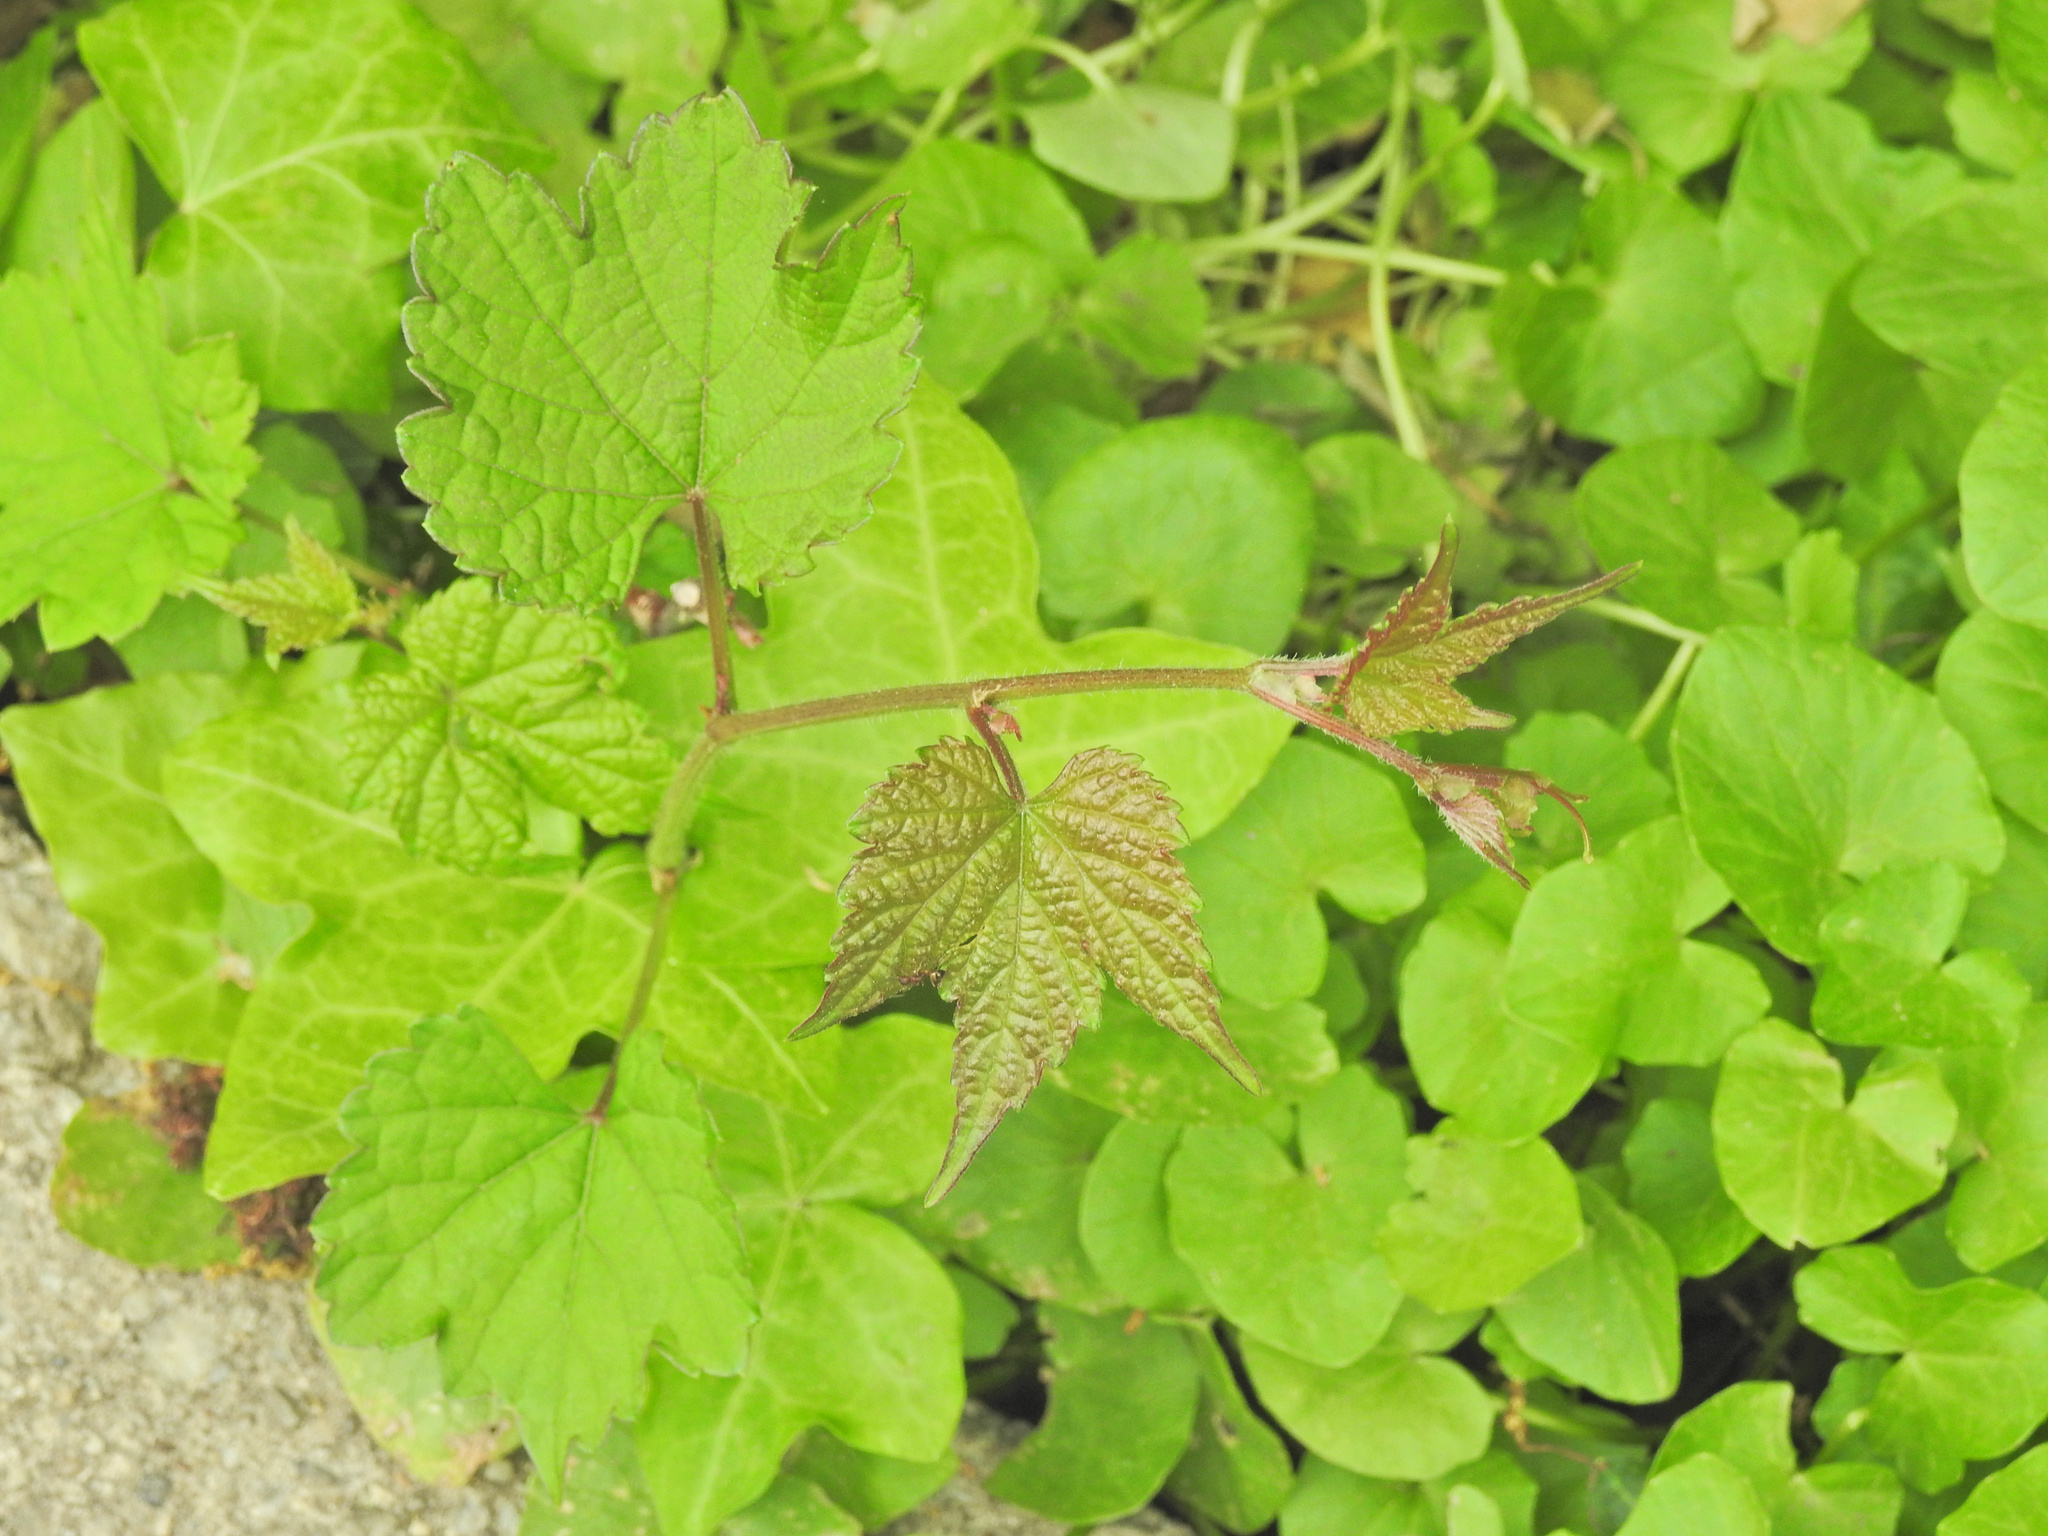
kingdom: Plantae
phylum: Tracheophyta
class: Magnoliopsida
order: Vitales
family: Vitaceae
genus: Ampelopsis
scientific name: Ampelopsis glandulosa
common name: Amur peppervine
